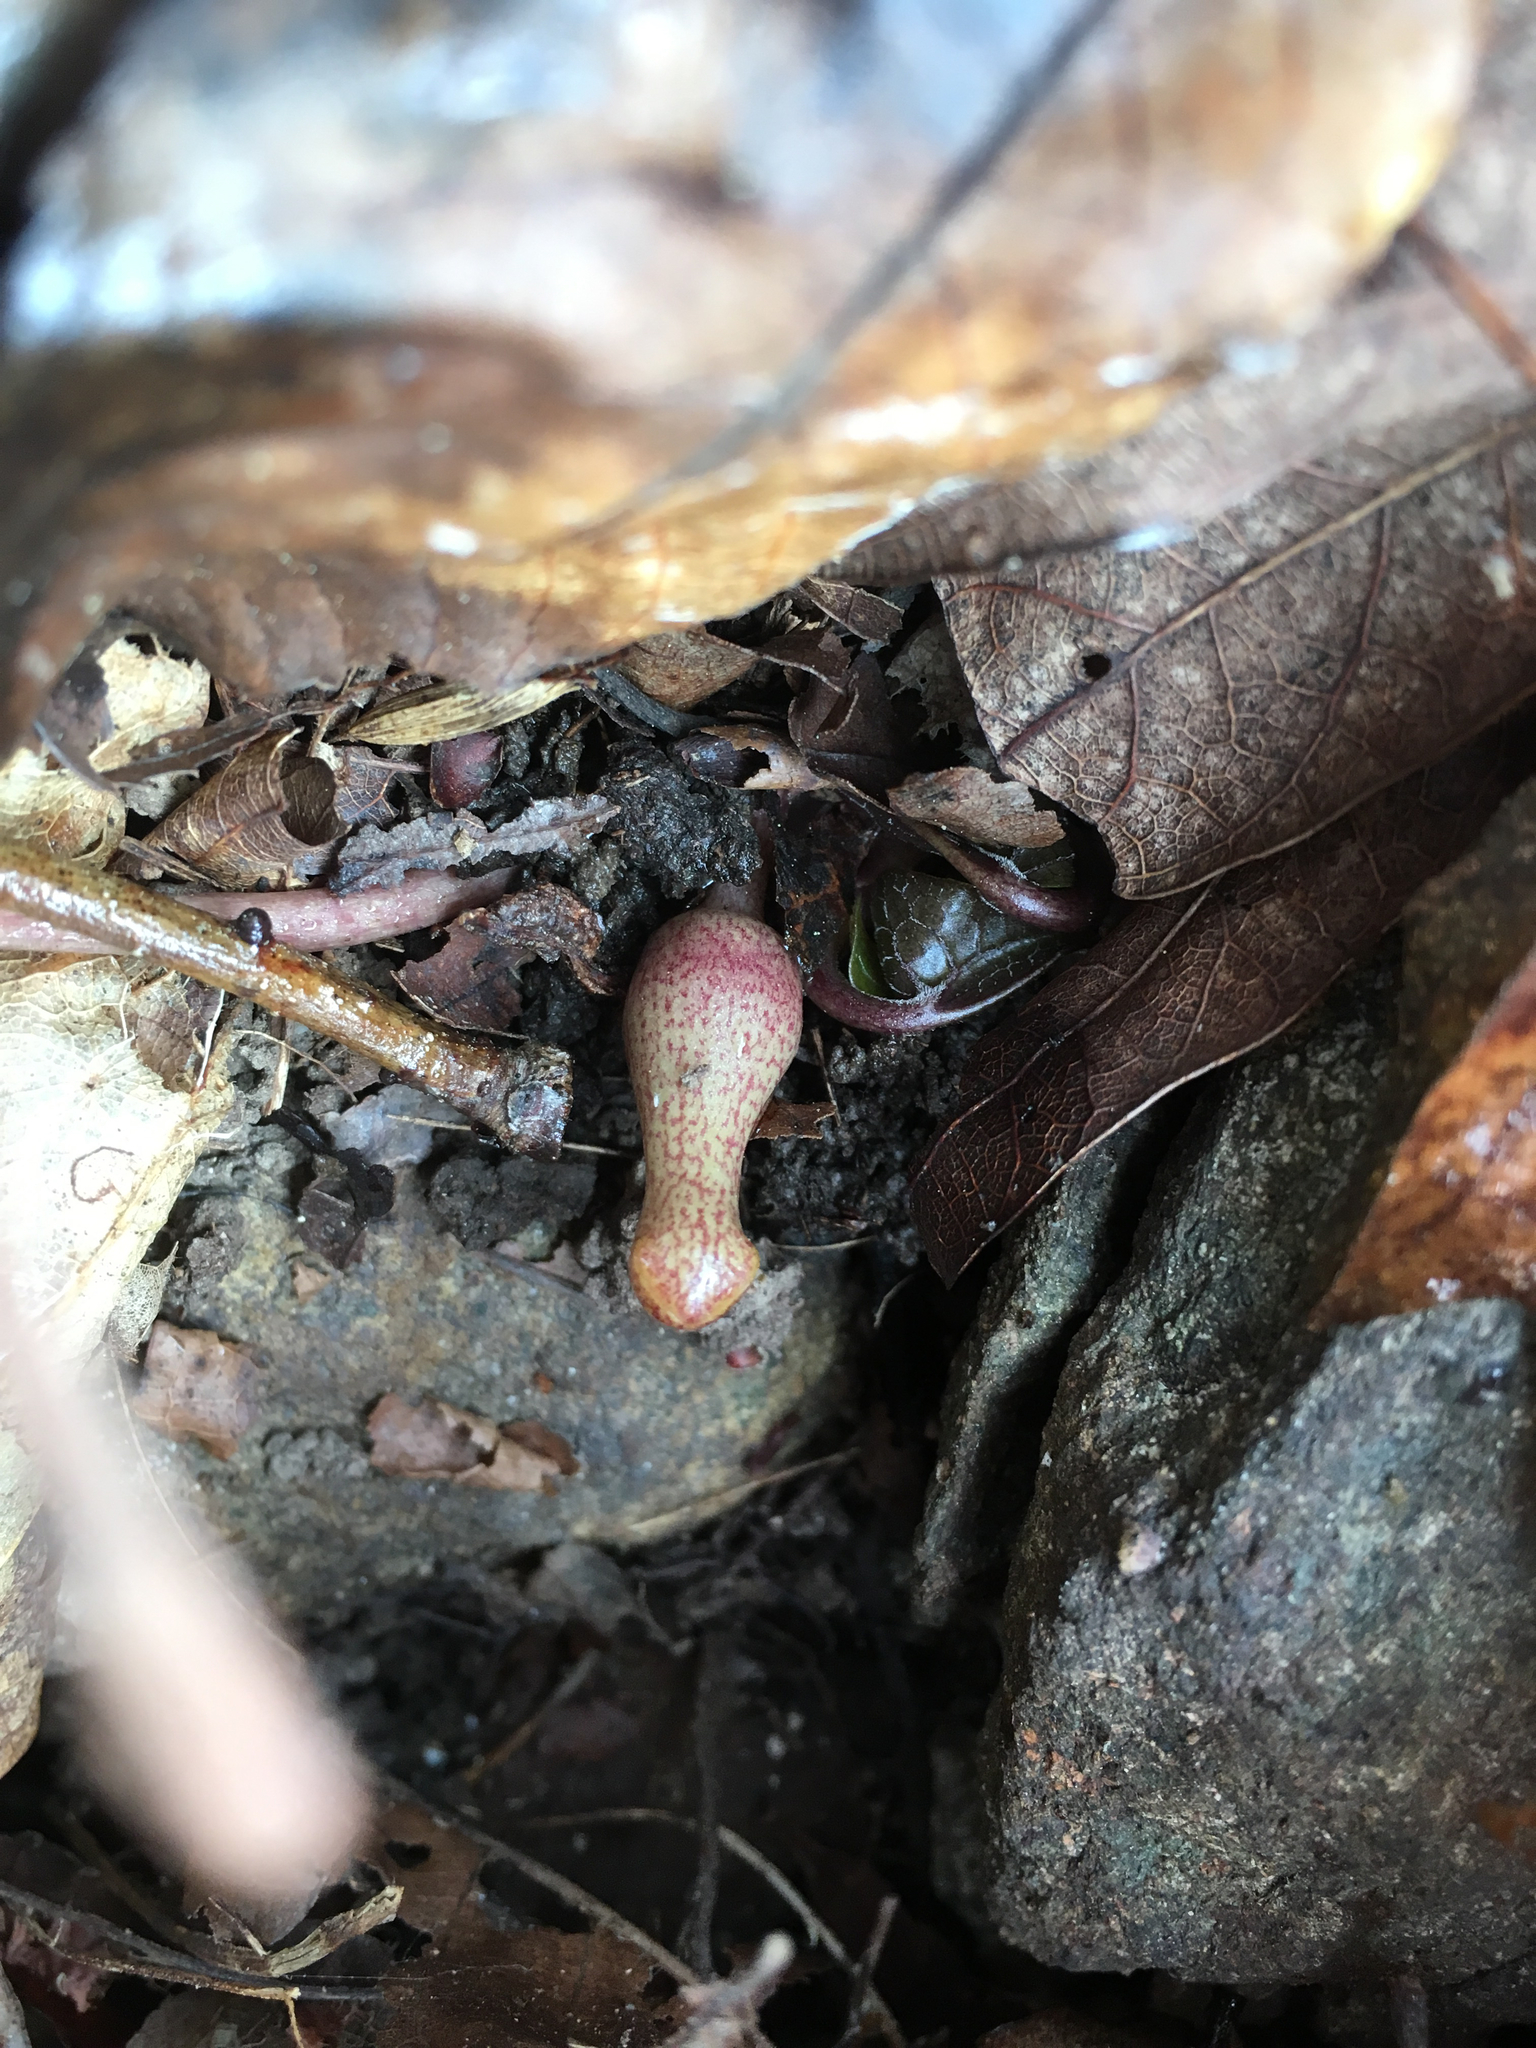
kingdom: Plantae
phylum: Tracheophyta
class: Magnoliopsida
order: Piperales
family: Aristolochiaceae
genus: Hexastylis
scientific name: Hexastylis arifolia
